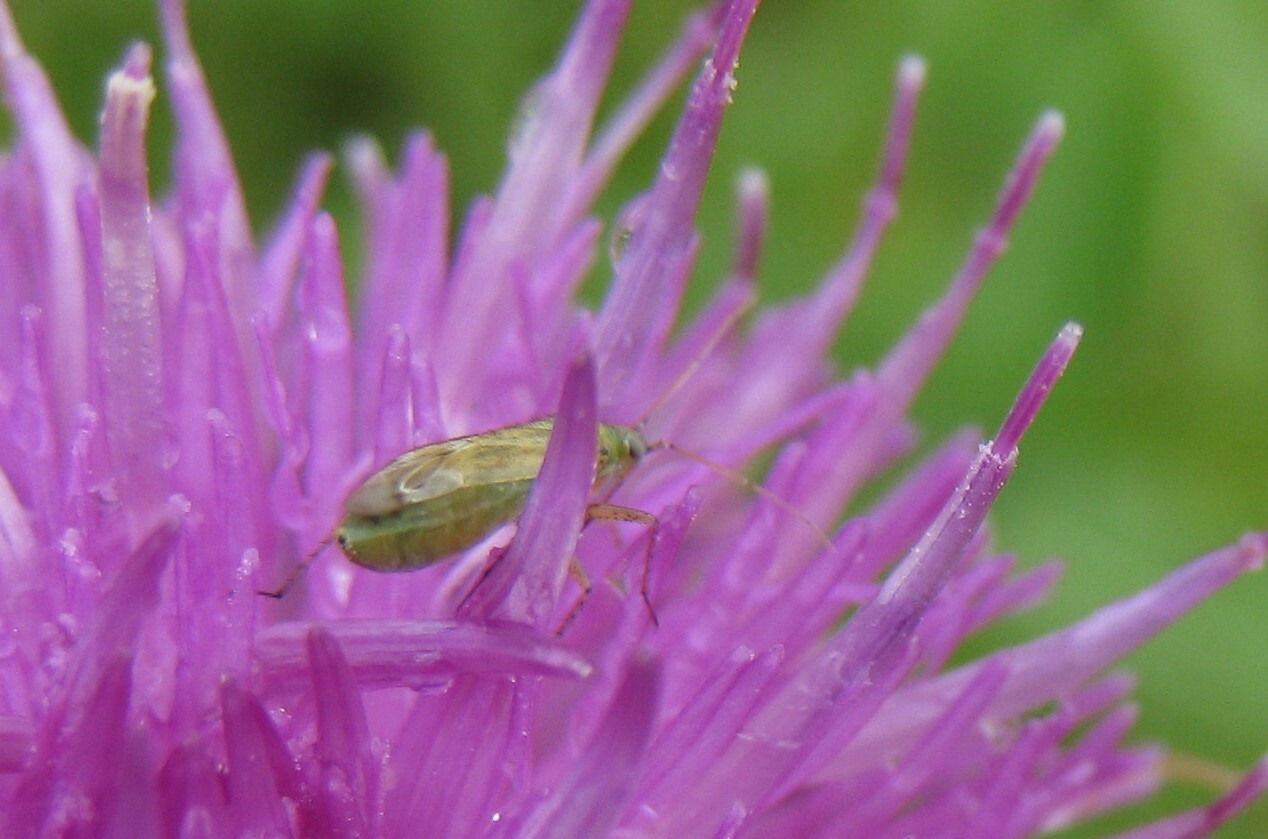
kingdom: Animalia
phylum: Arthropoda
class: Insecta
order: Hemiptera
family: Miridae
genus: Plagiognathus
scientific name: Plagiognathus chrysanthemi
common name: Plant bug
